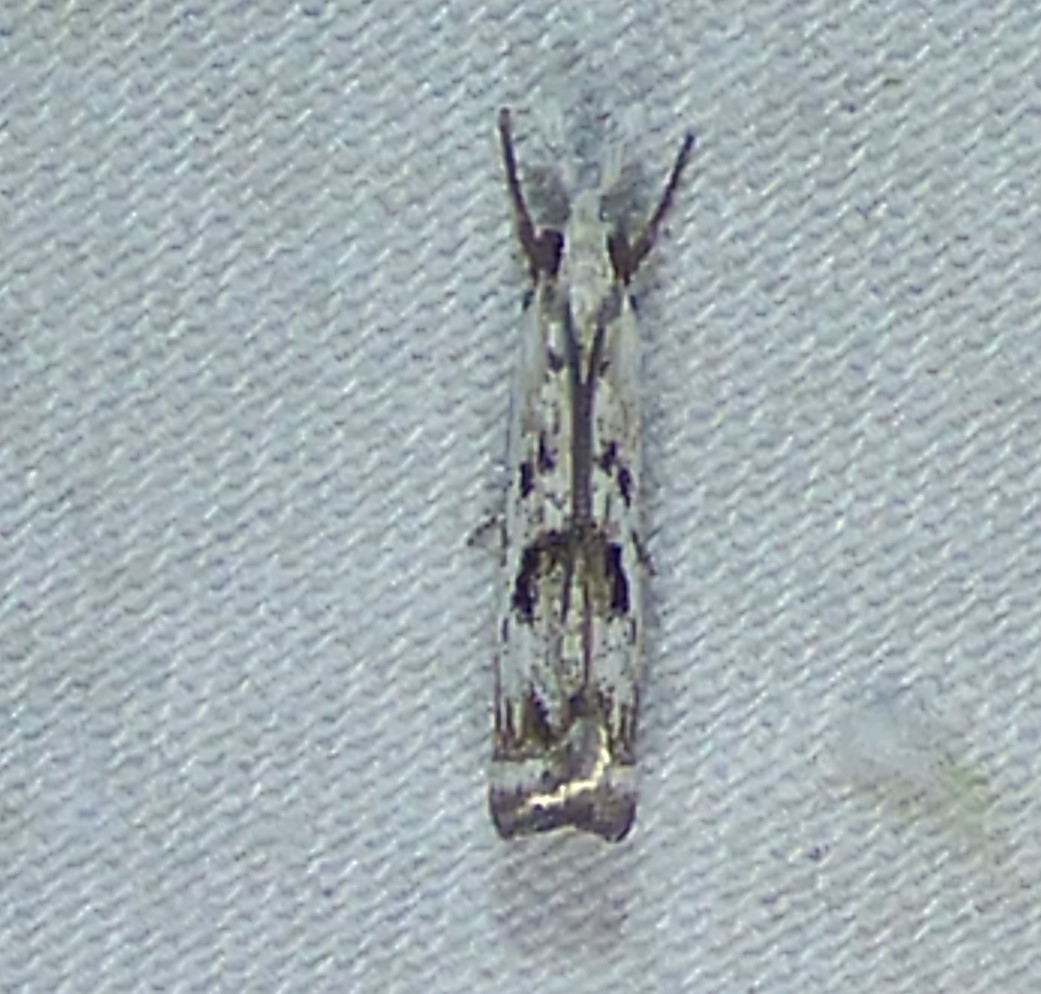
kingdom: Animalia
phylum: Arthropoda
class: Insecta
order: Lepidoptera
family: Crambidae
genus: Microcrambus
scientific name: Microcrambus immunellus
